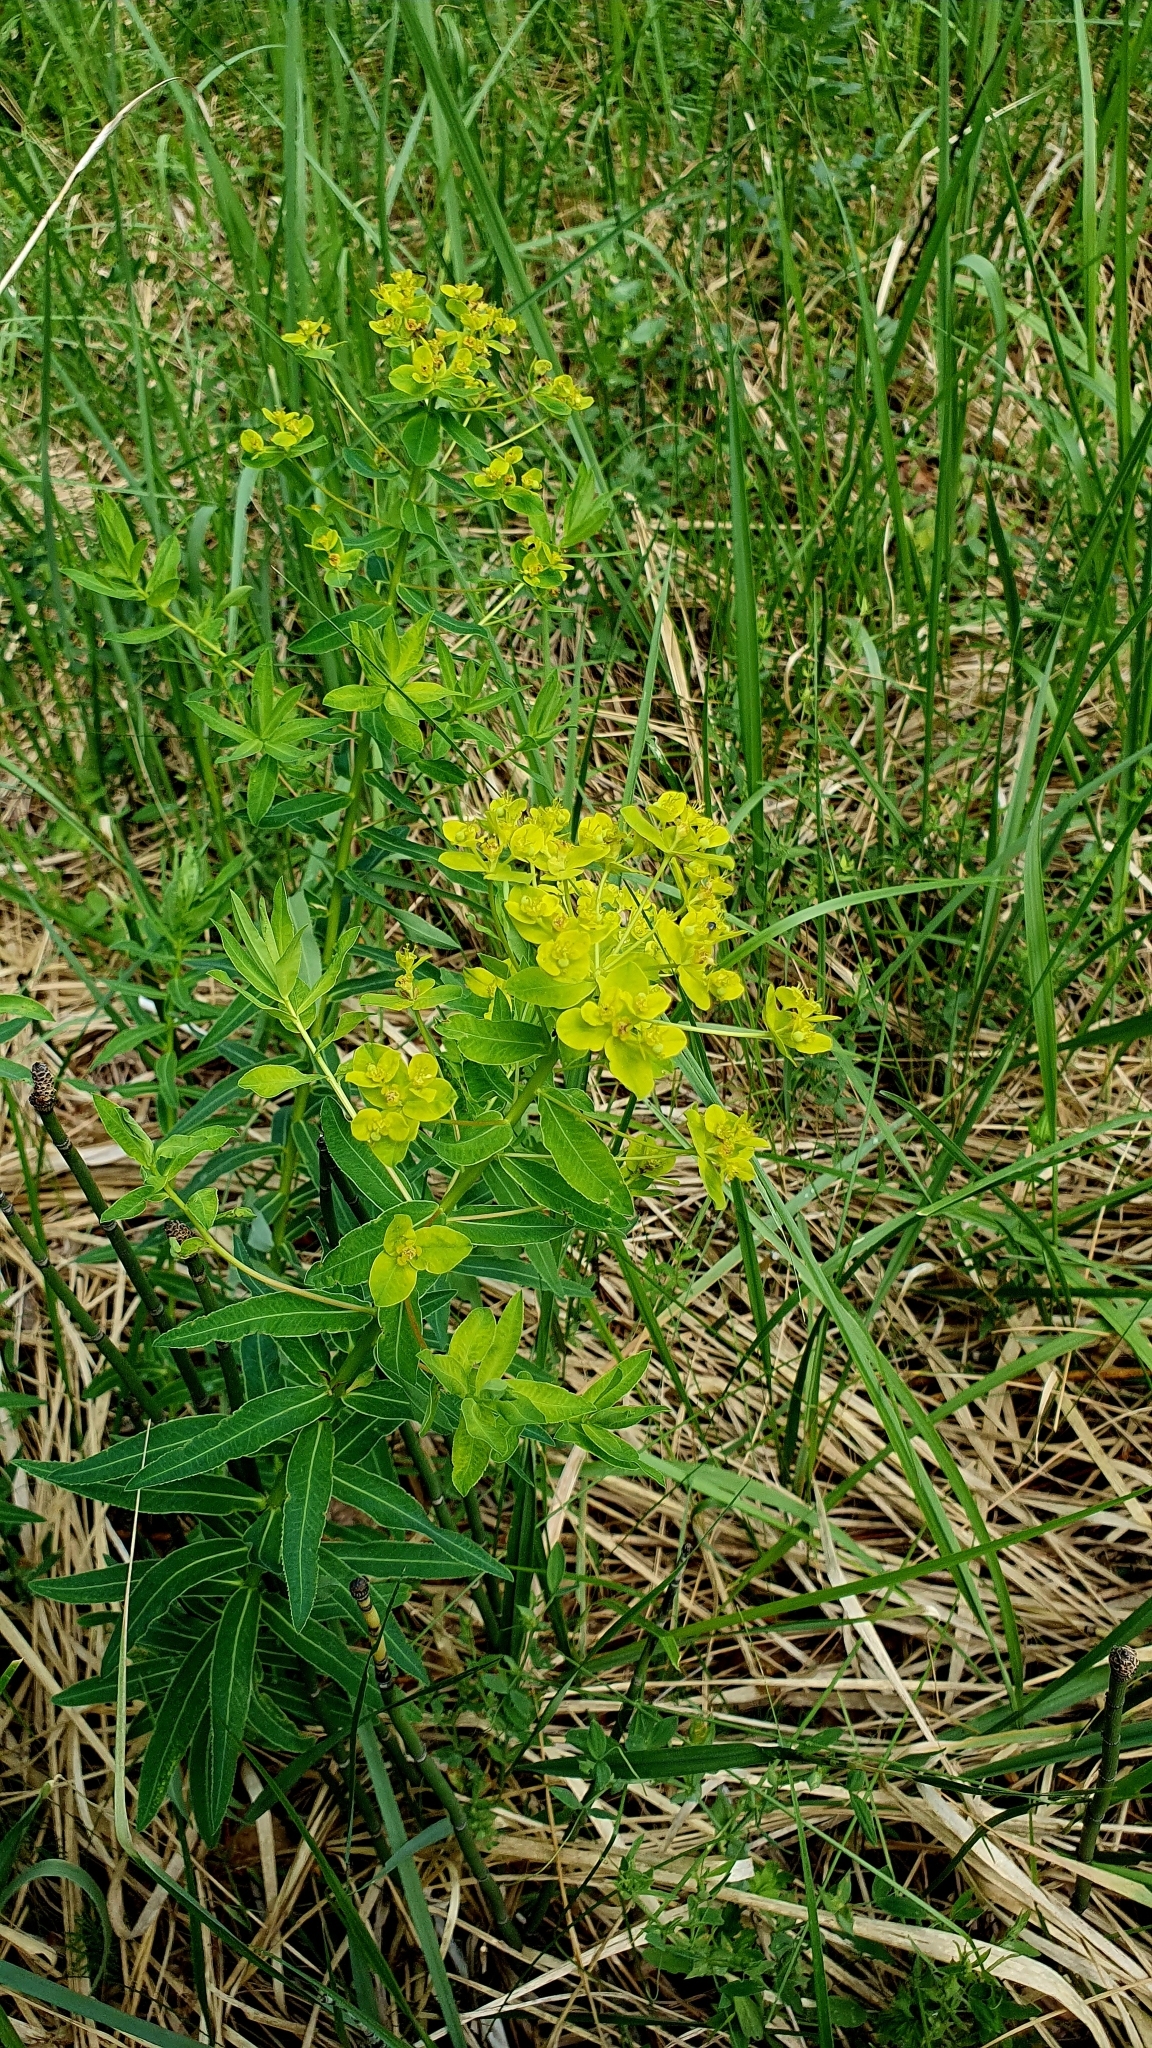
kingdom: Plantae
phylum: Tracheophyta
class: Magnoliopsida
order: Malpighiales
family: Euphorbiaceae
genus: Euphorbia
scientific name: Euphorbia palustris
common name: Marsh spurge
